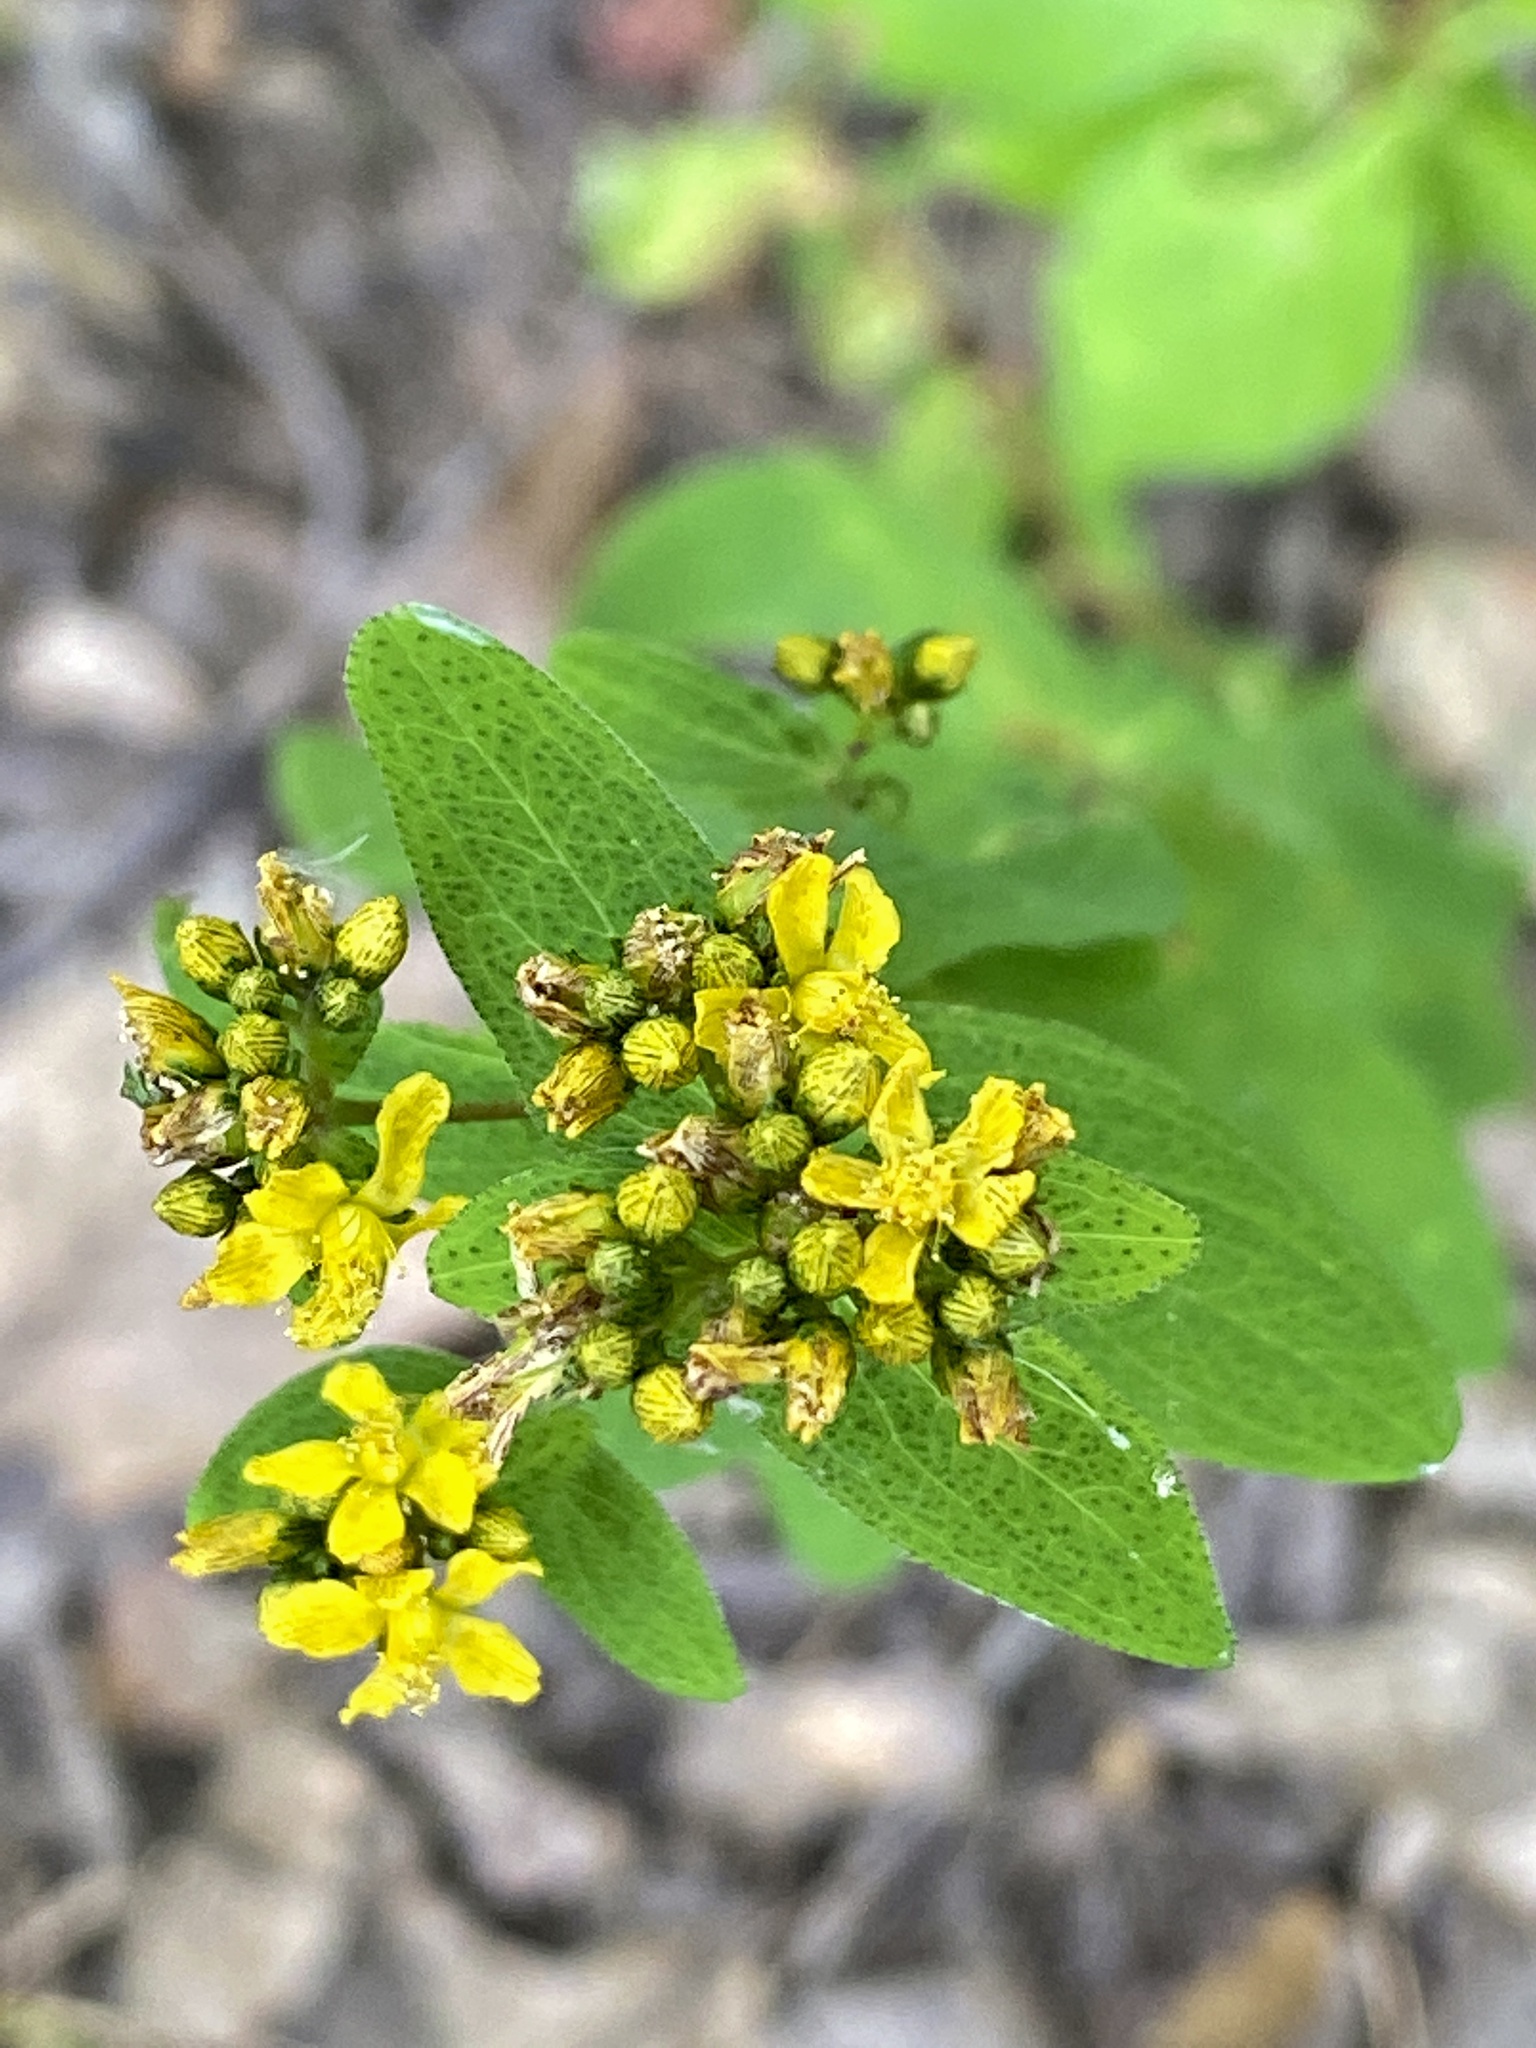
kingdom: Plantae
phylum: Tracheophyta
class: Magnoliopsida
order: Malpighiales
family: Hypericaceae
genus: Hypericum
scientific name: Hypericum punctatum
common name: Spotted st. john's-wort
